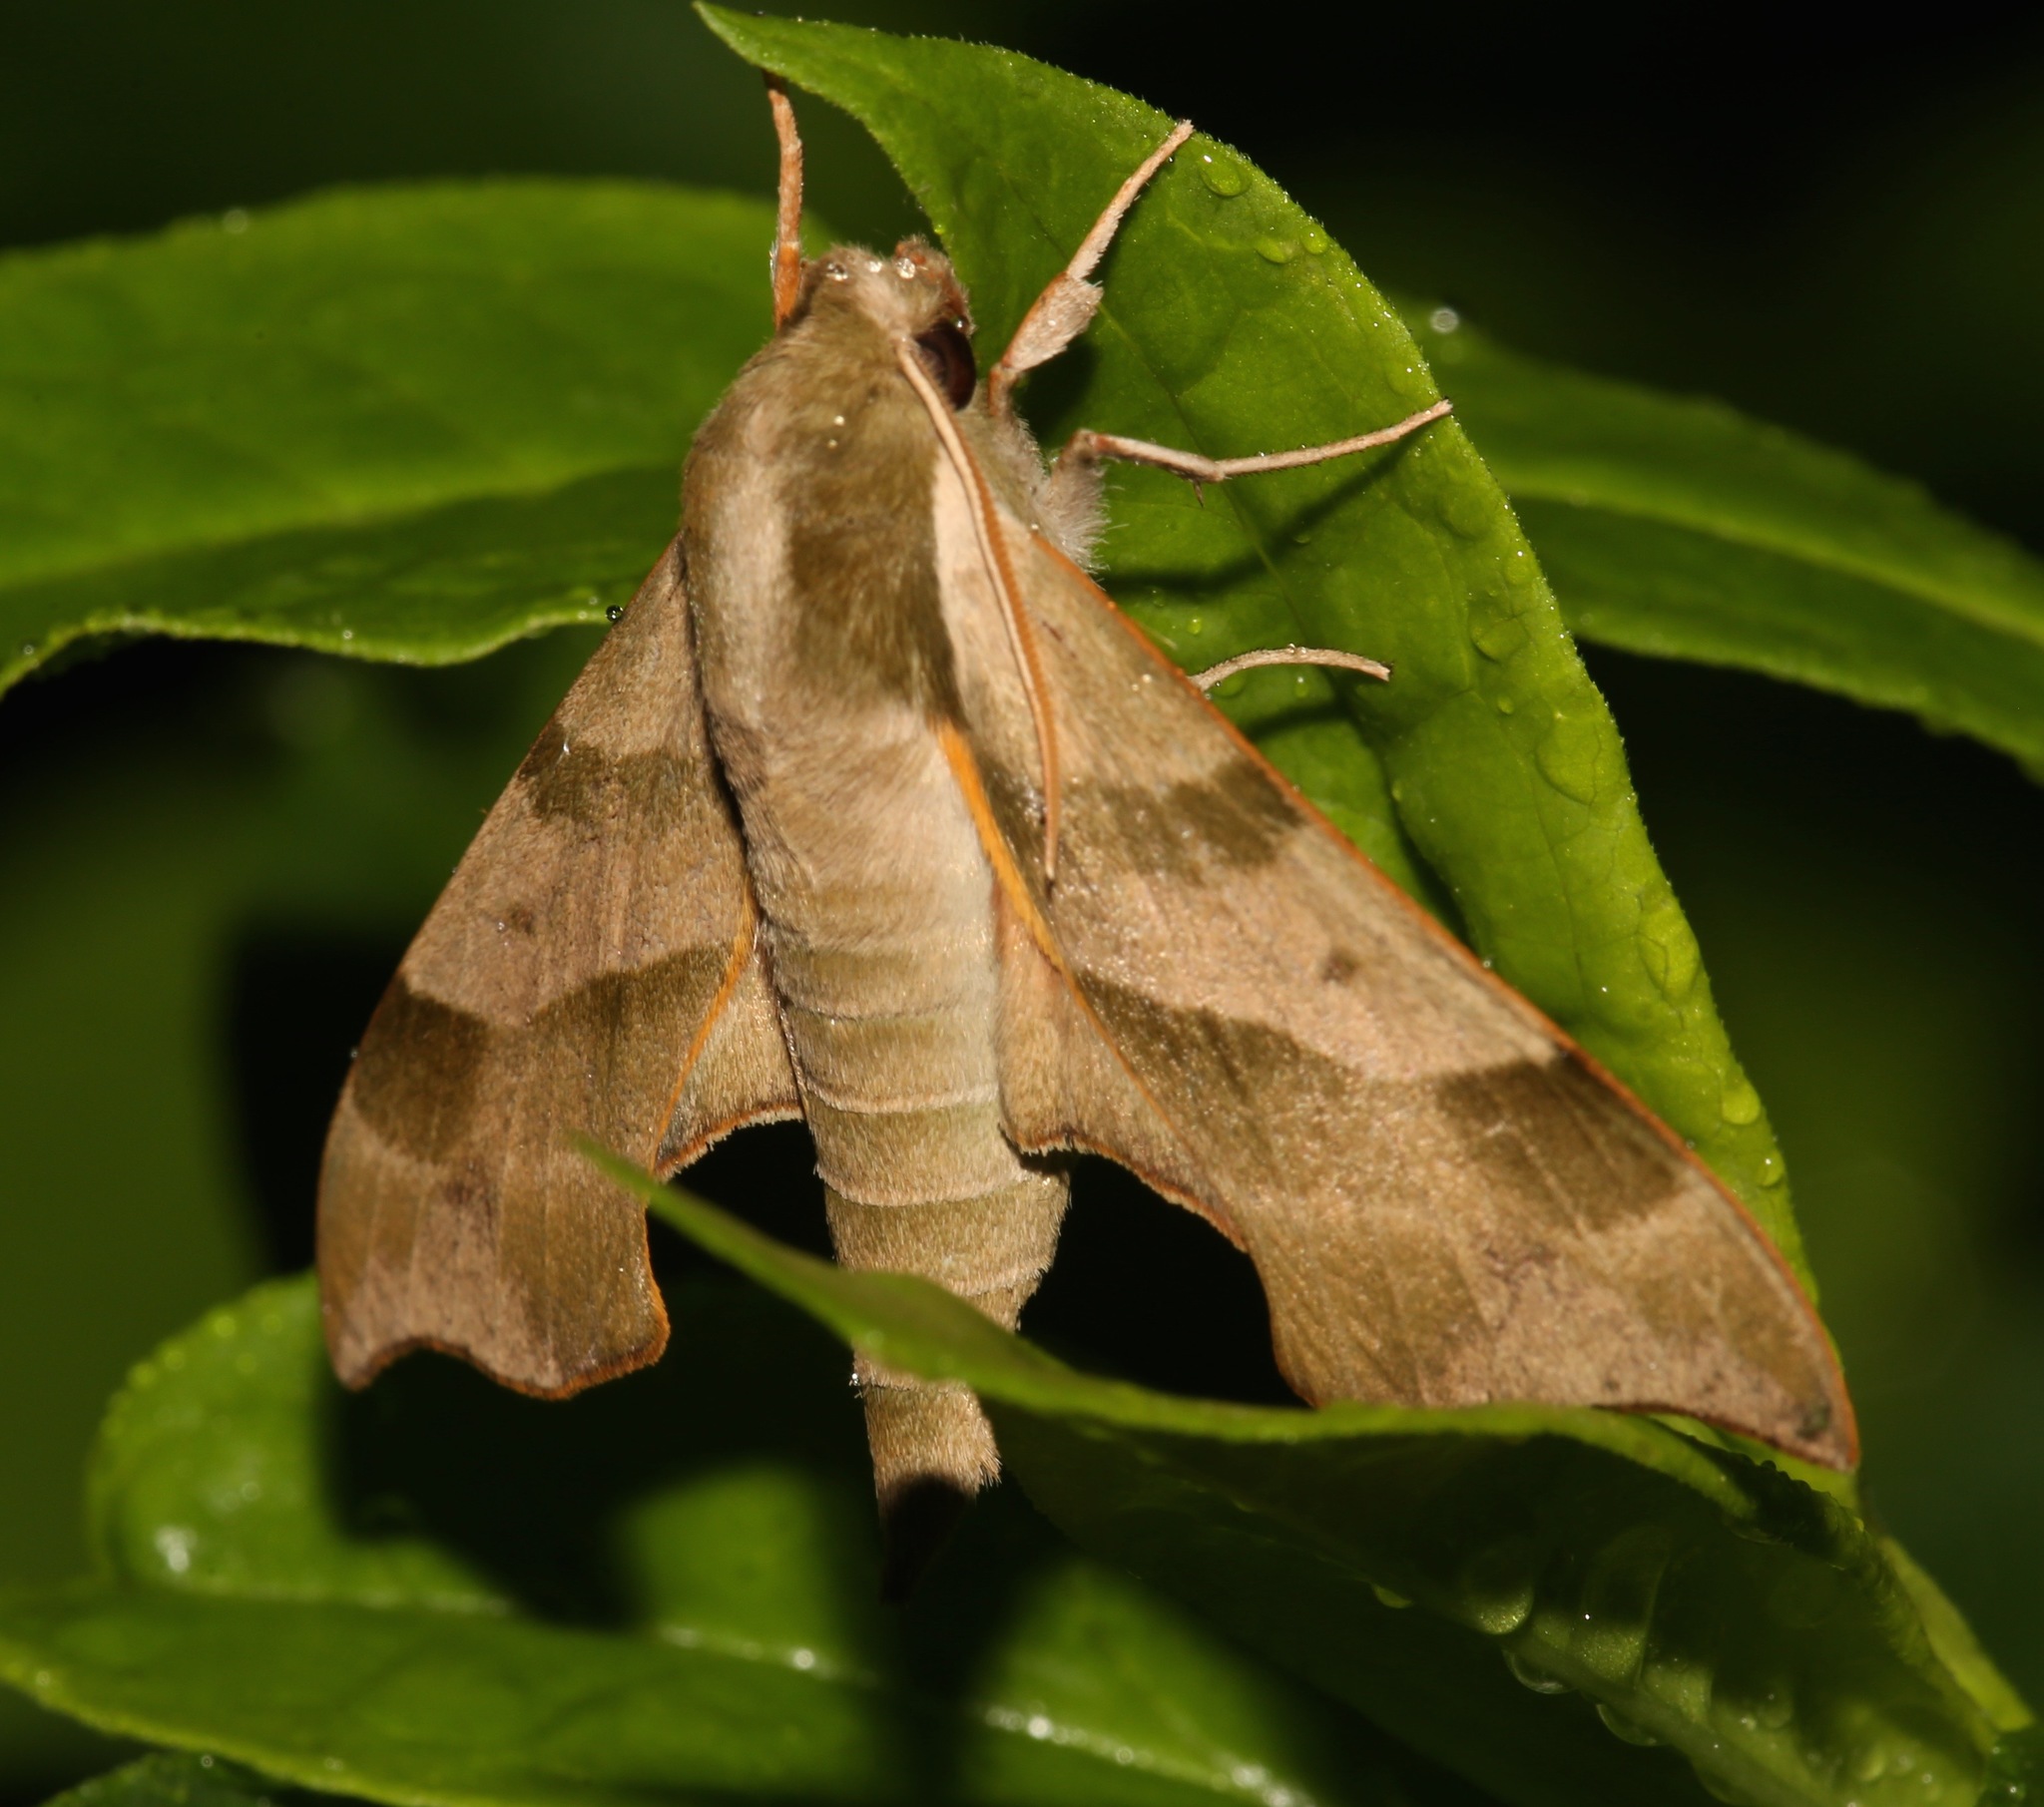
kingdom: Animalia
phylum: Arthropoda
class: Insecta
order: Lepidoptera
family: Sphingidae
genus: Darapsa
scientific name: Darapsa myron
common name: Hog sphinx
